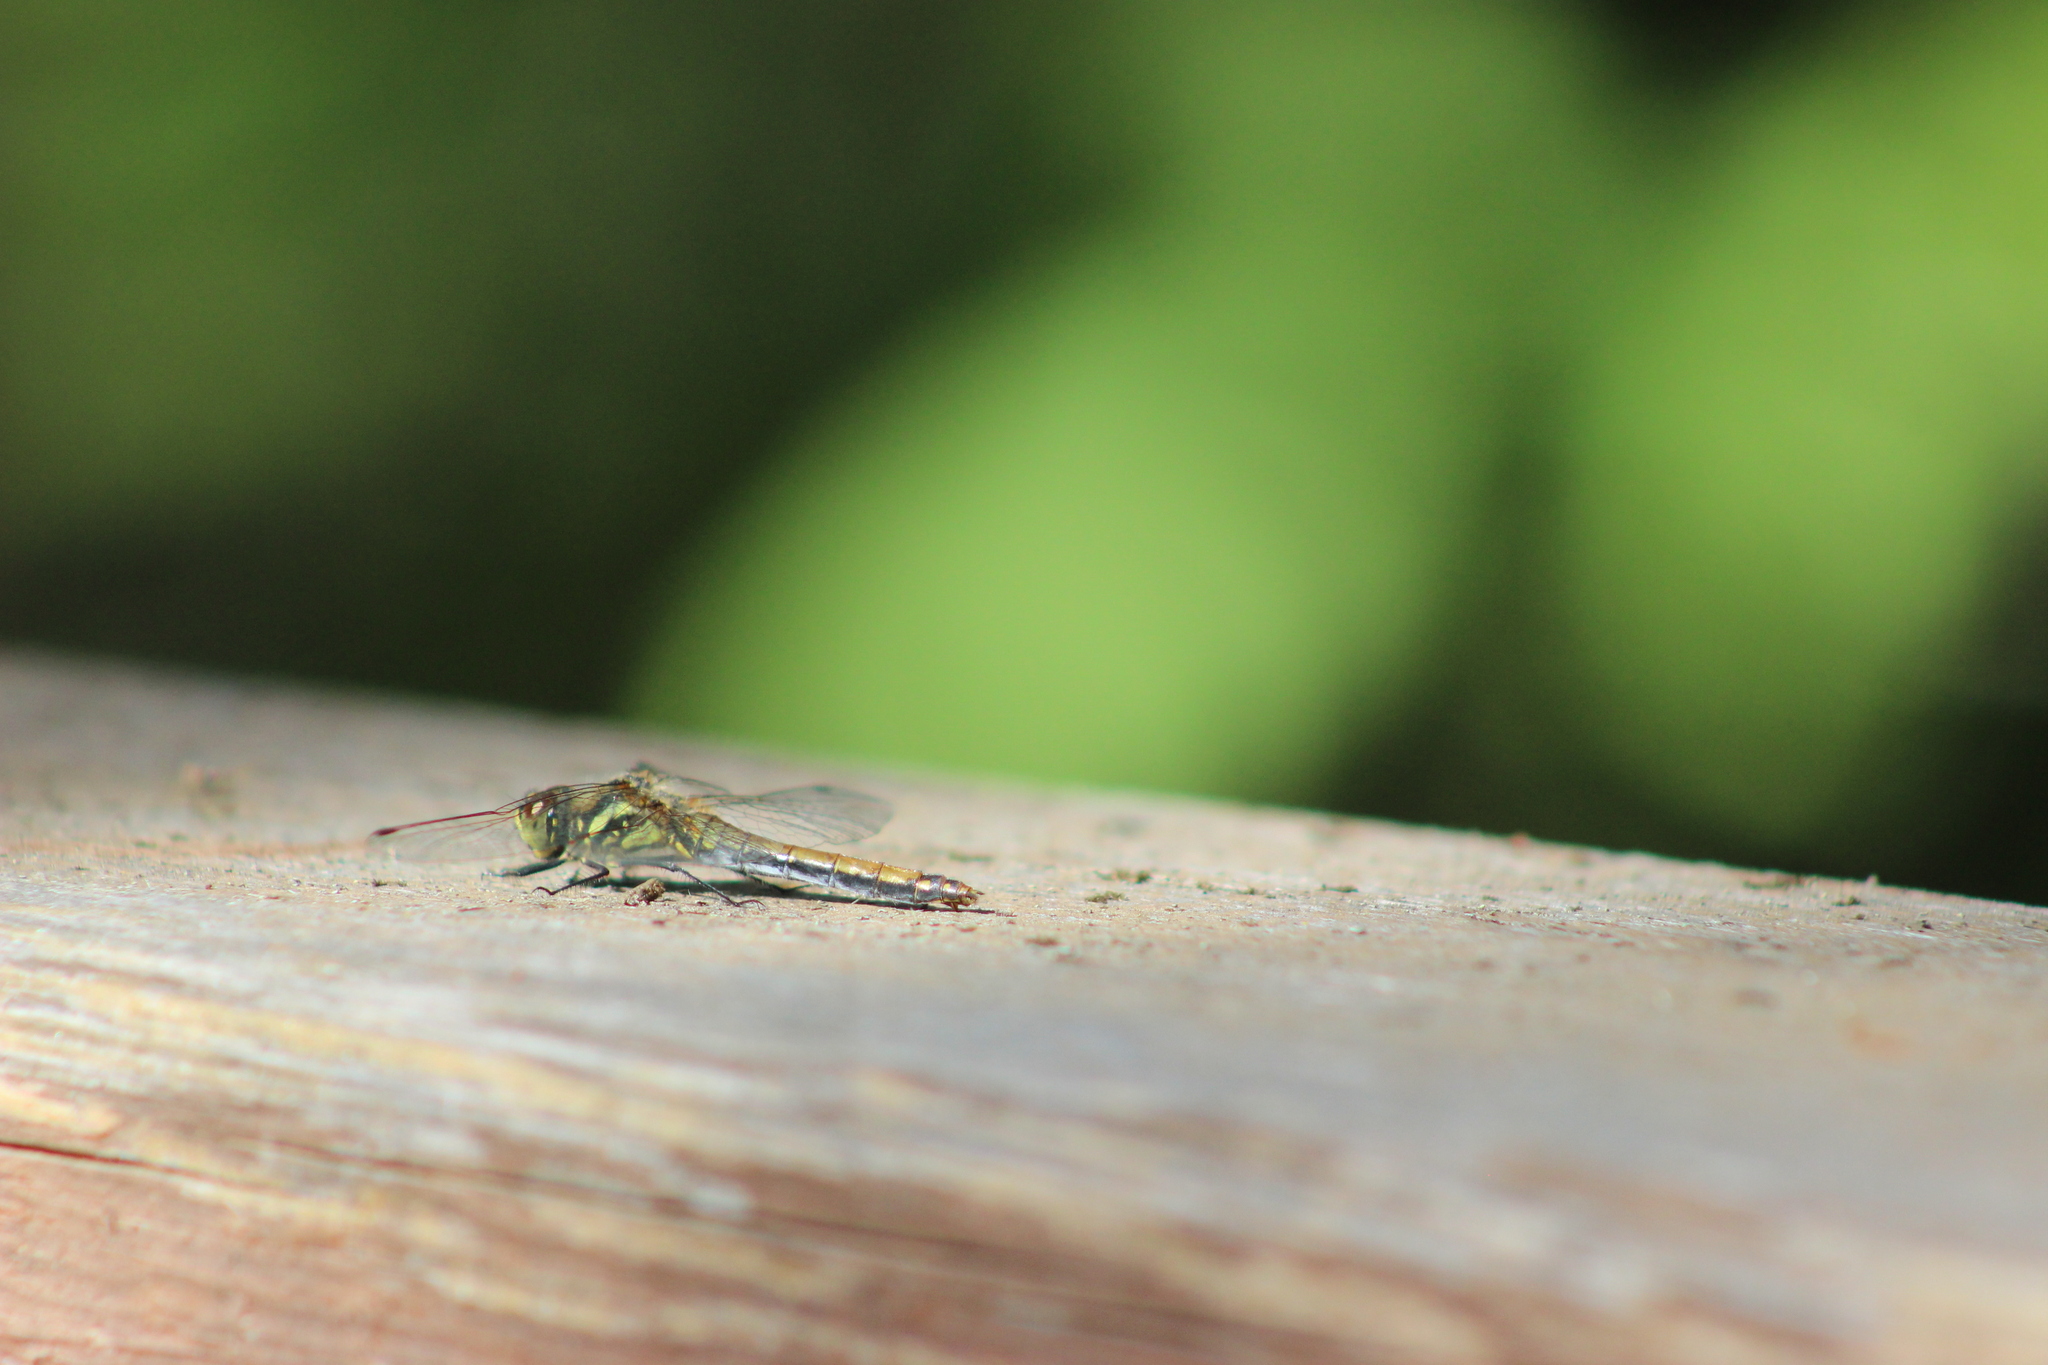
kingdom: Animalia
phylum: Arthropoda
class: Insecta
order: Odonata
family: Libellulidae
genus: Sympetrum
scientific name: Sympetrum danae
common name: Black darter
